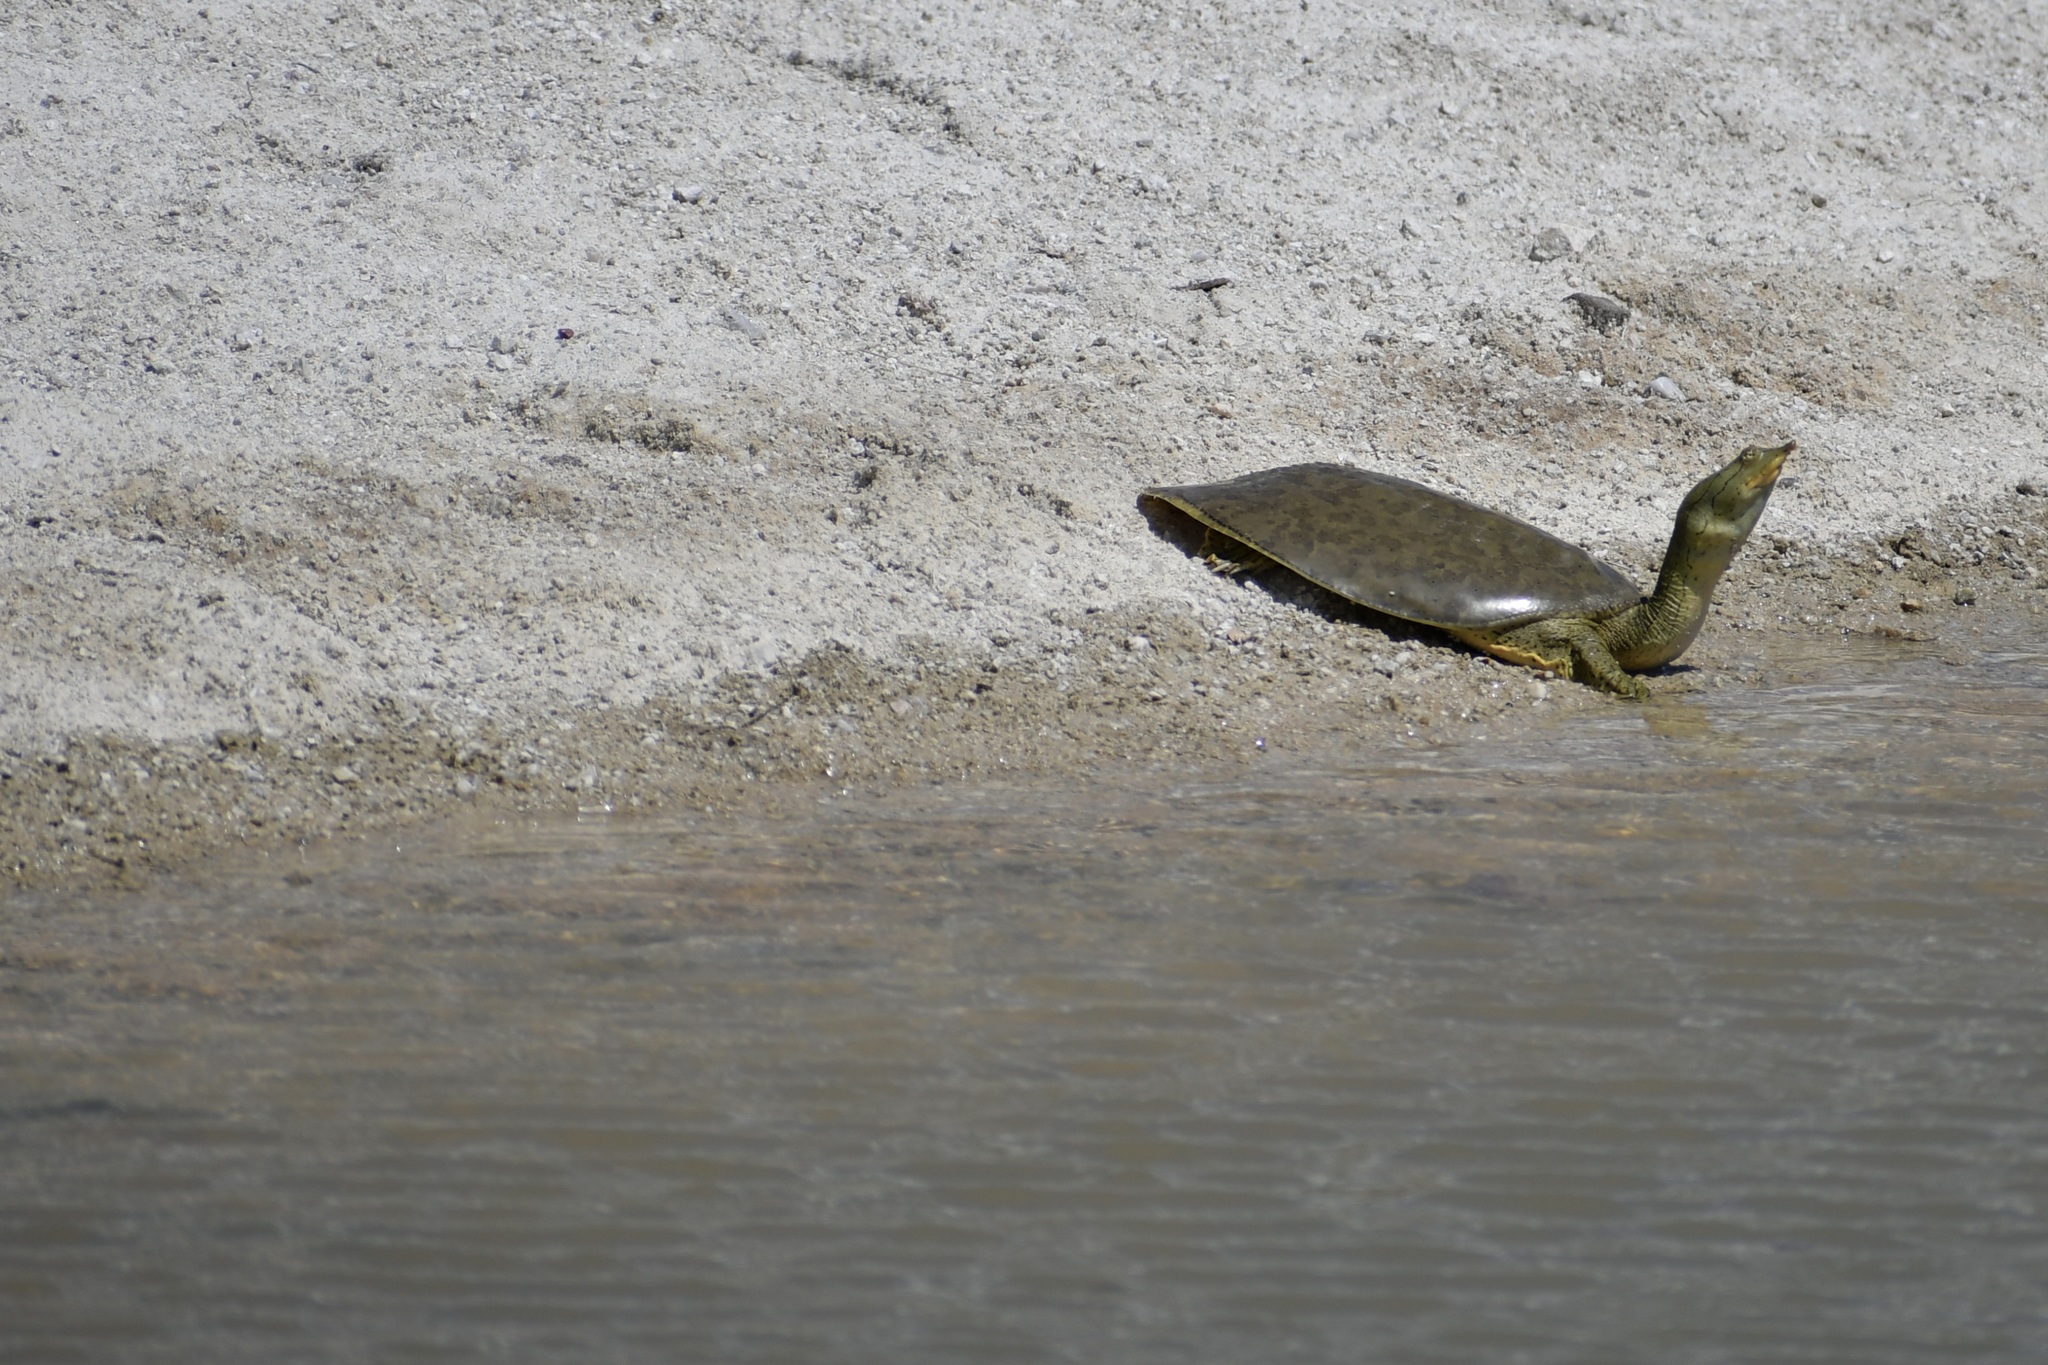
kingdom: Animalia
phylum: Chordata
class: Testudines
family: Trionychidae
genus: Apalone
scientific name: Apalone spinifera
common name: Spiny softshell turtle
